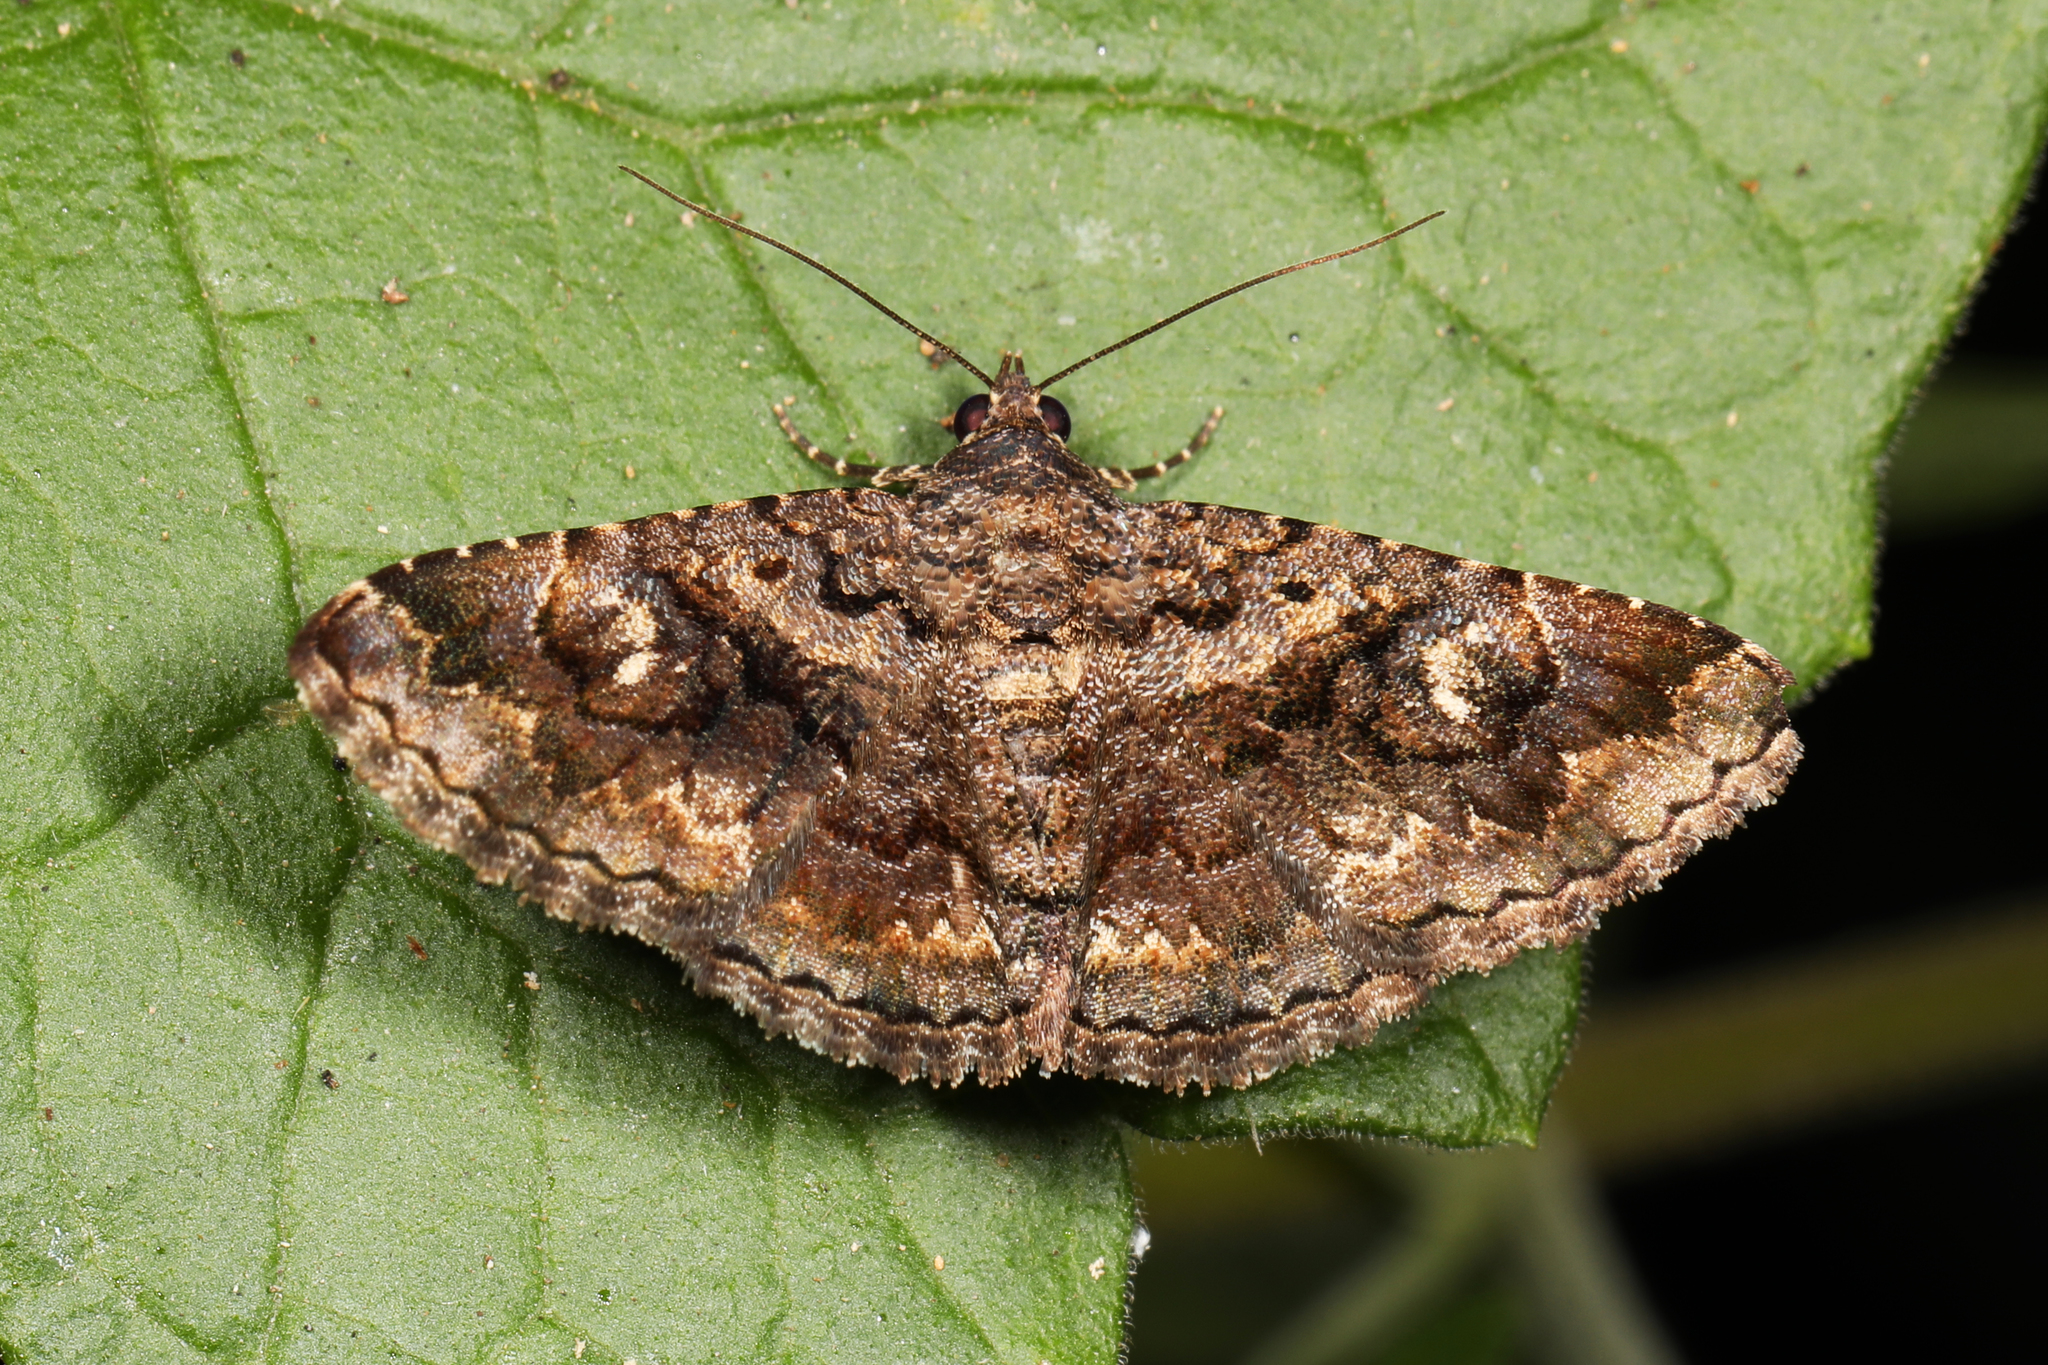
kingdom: Animalia
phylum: Arthropoda
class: Insecta
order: Lepidoptera
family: Erebidae
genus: Toxonprucha
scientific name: Toxonprucha excavata
